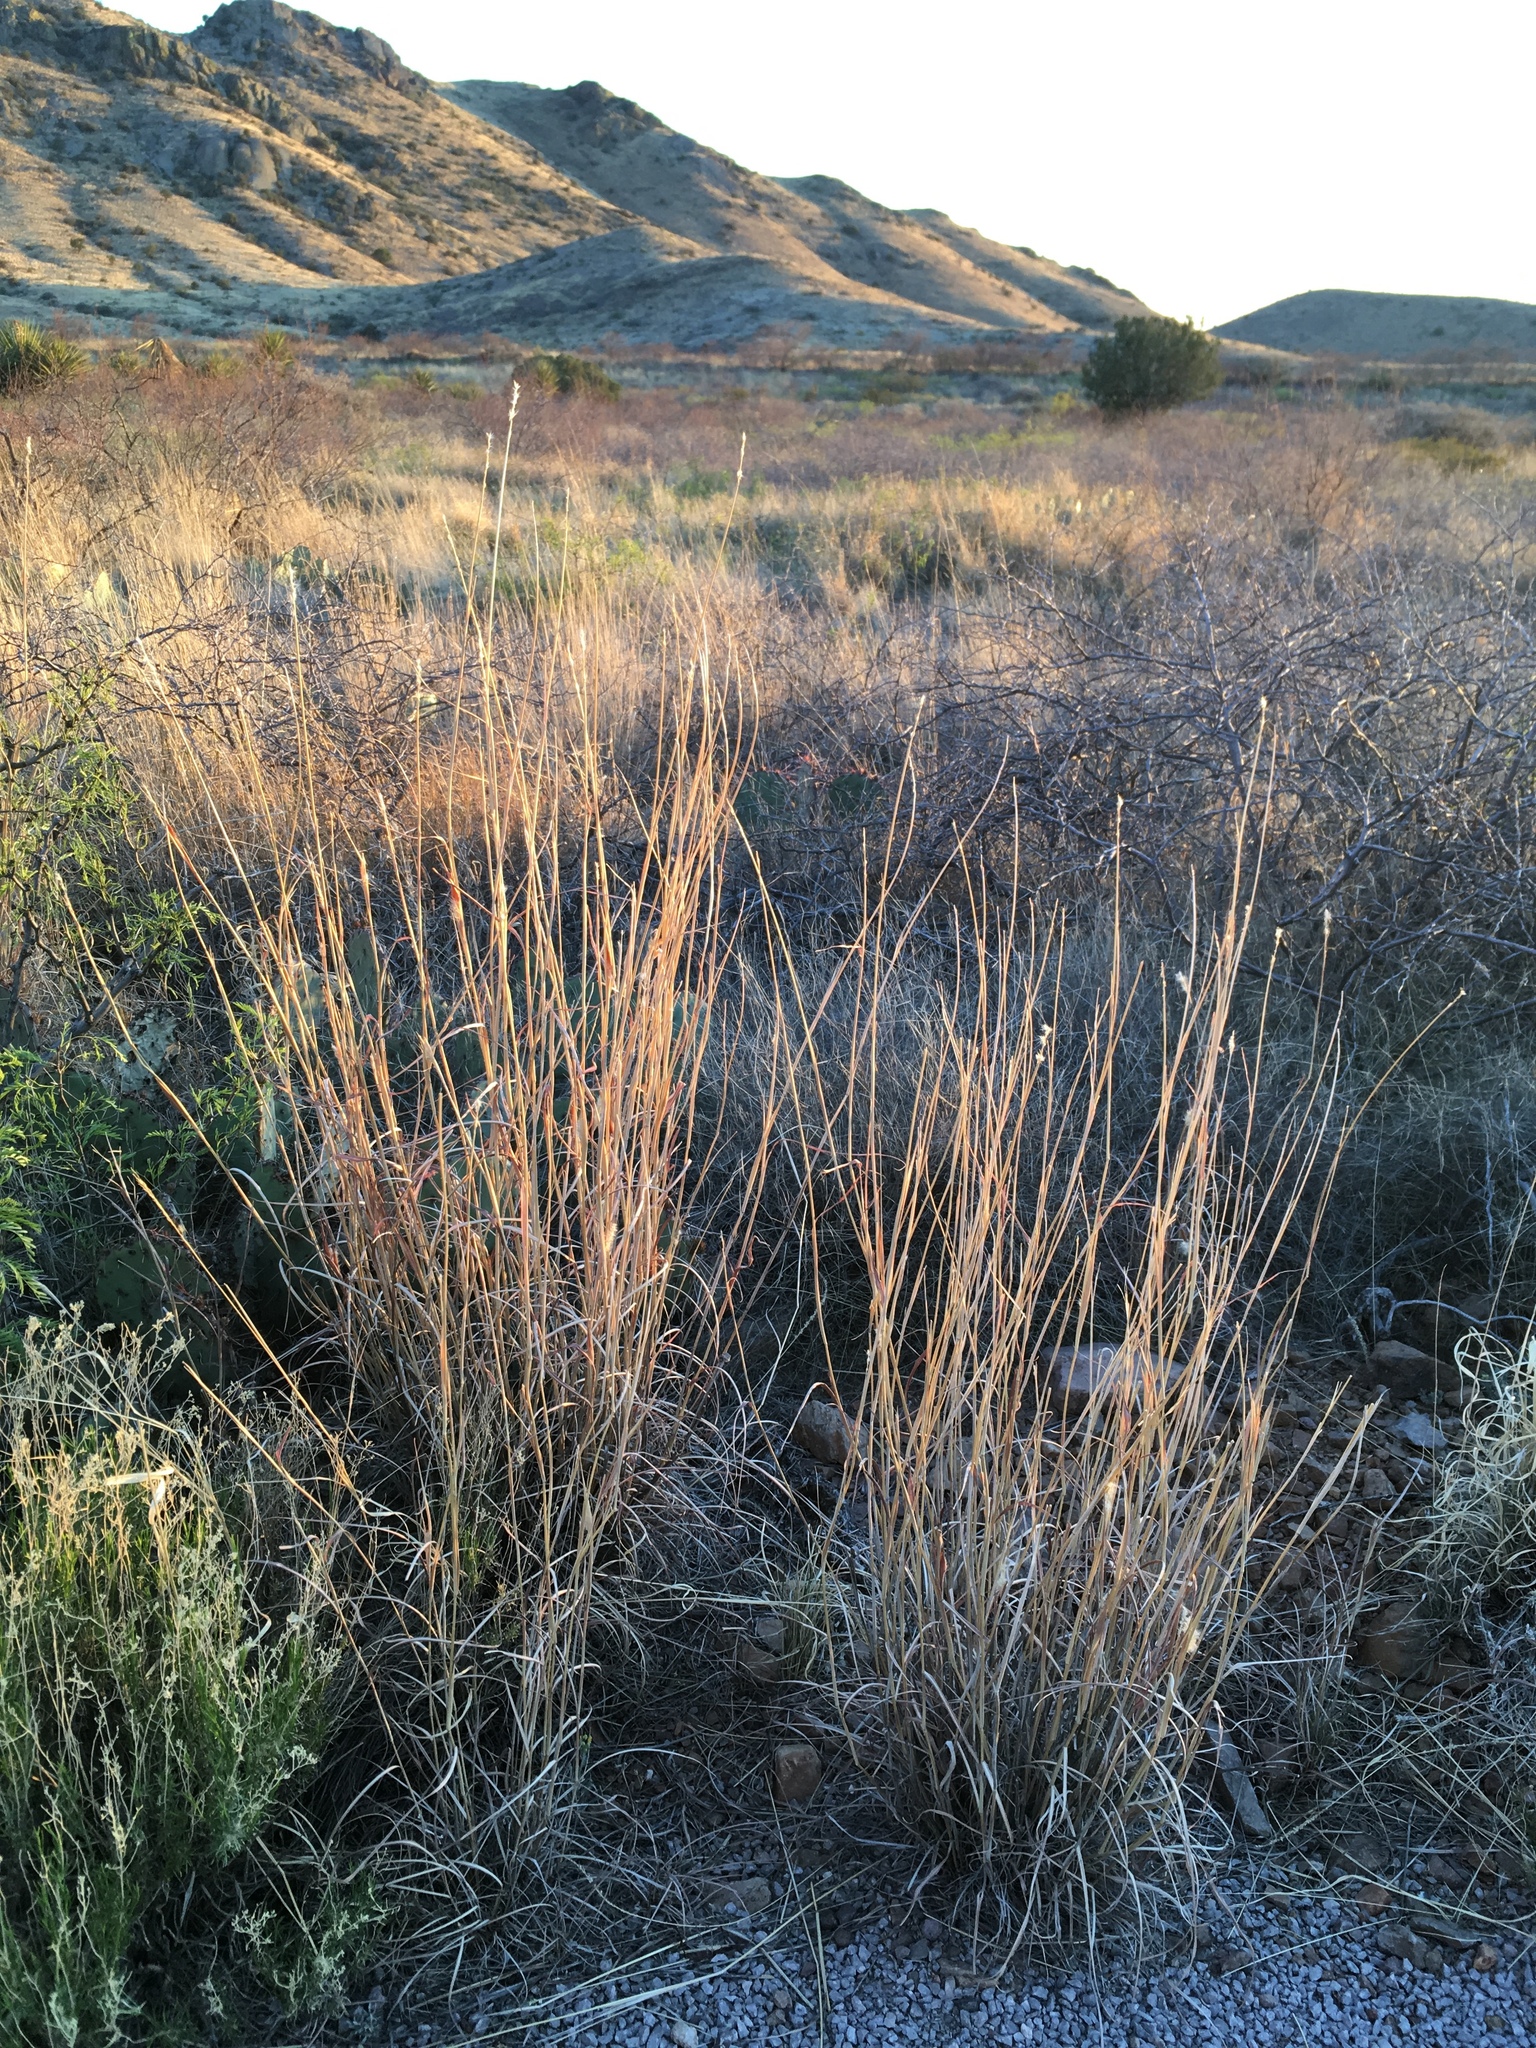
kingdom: Plantae
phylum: Tracheophyta
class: Liliopsida
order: Poales
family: Poaceae
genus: Bothriochloa
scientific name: Bothriochloa barbinodis
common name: Cane bluestem
